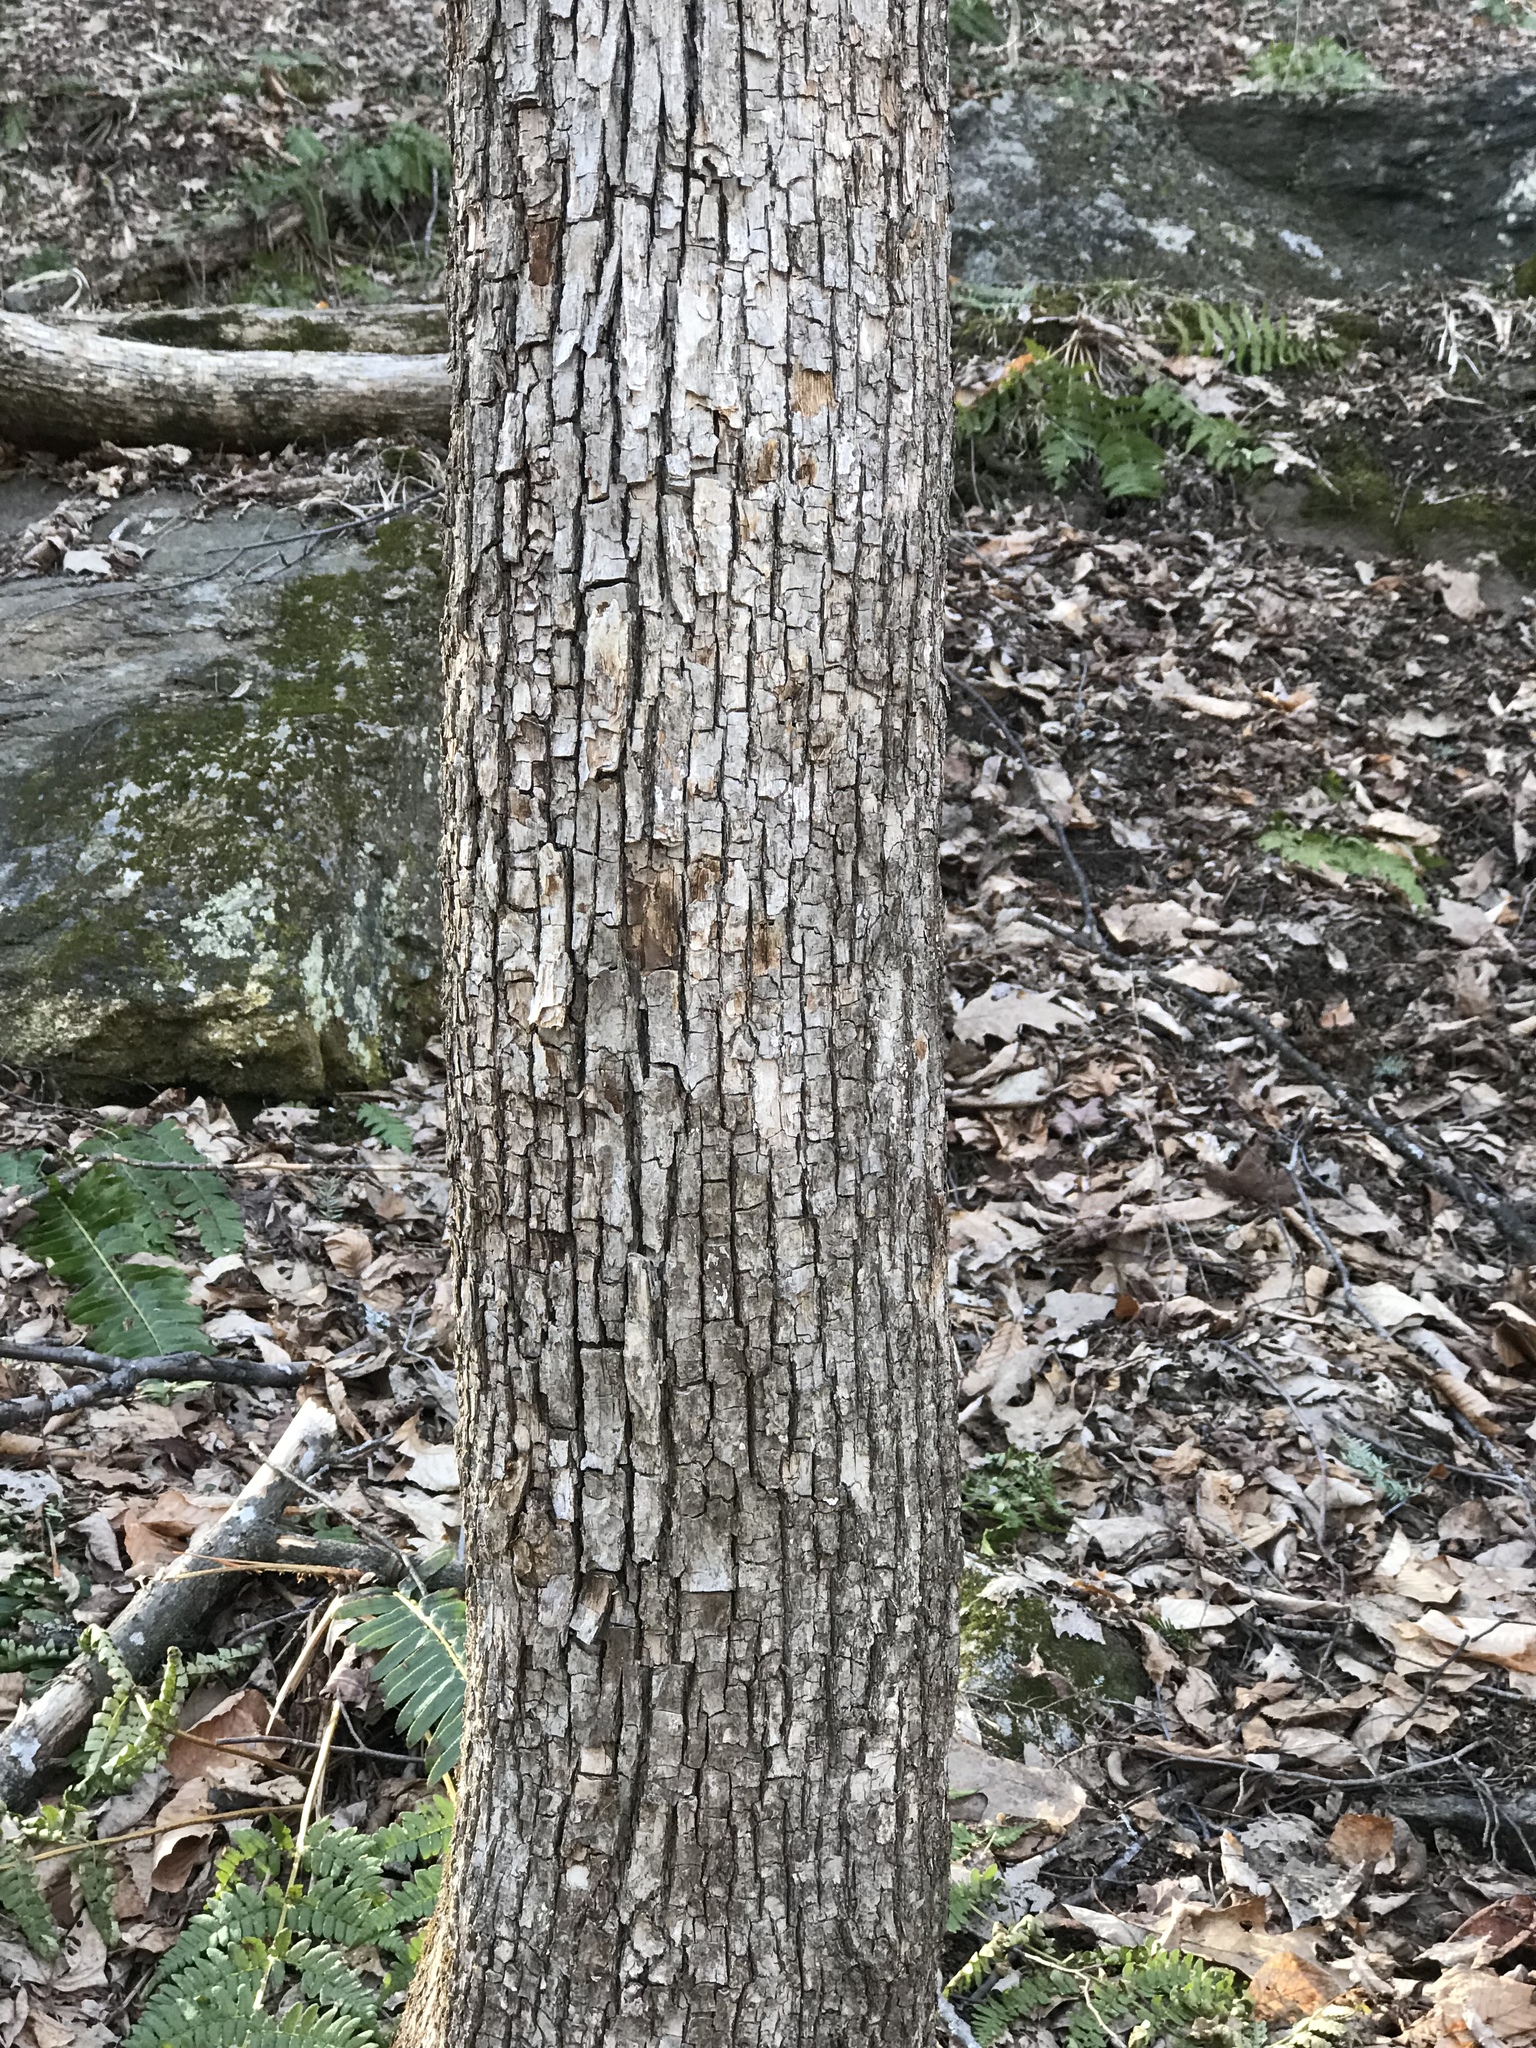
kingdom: Plantae
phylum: Tracheophyta
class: Magnoliopsida
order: Fagales
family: Betulaceae
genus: Ostrya
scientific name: Ostrya virginiana
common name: Ironwood
